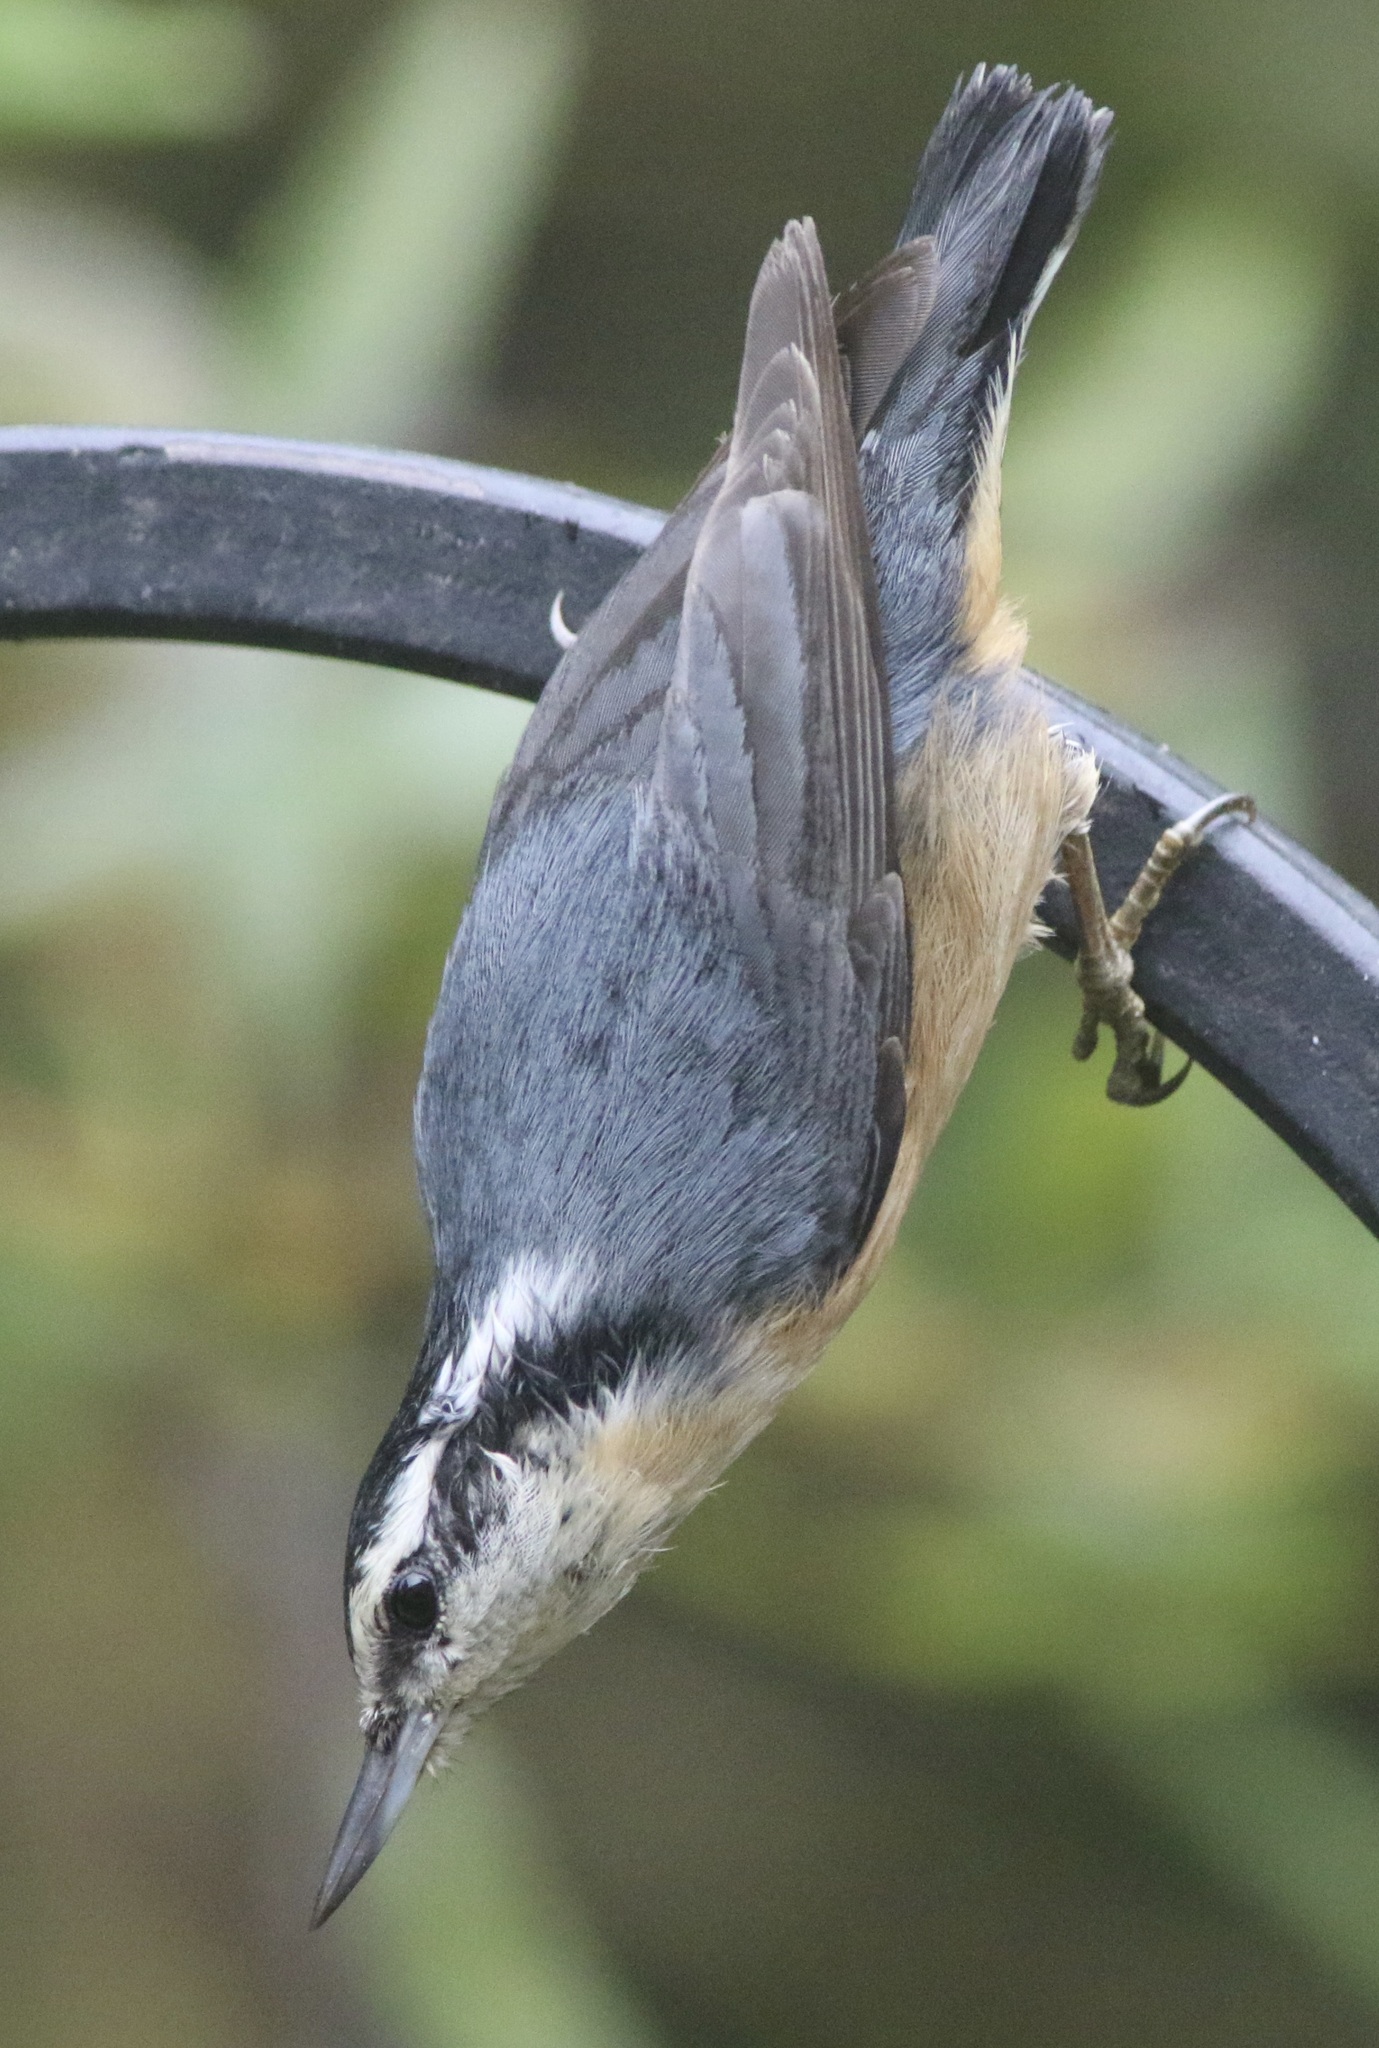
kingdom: Animalia
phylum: Chordata
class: Aves
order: Passeriformes
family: Sittidae
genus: Sitta
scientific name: Sitta canadensis
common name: Red-breasted nuthatch
